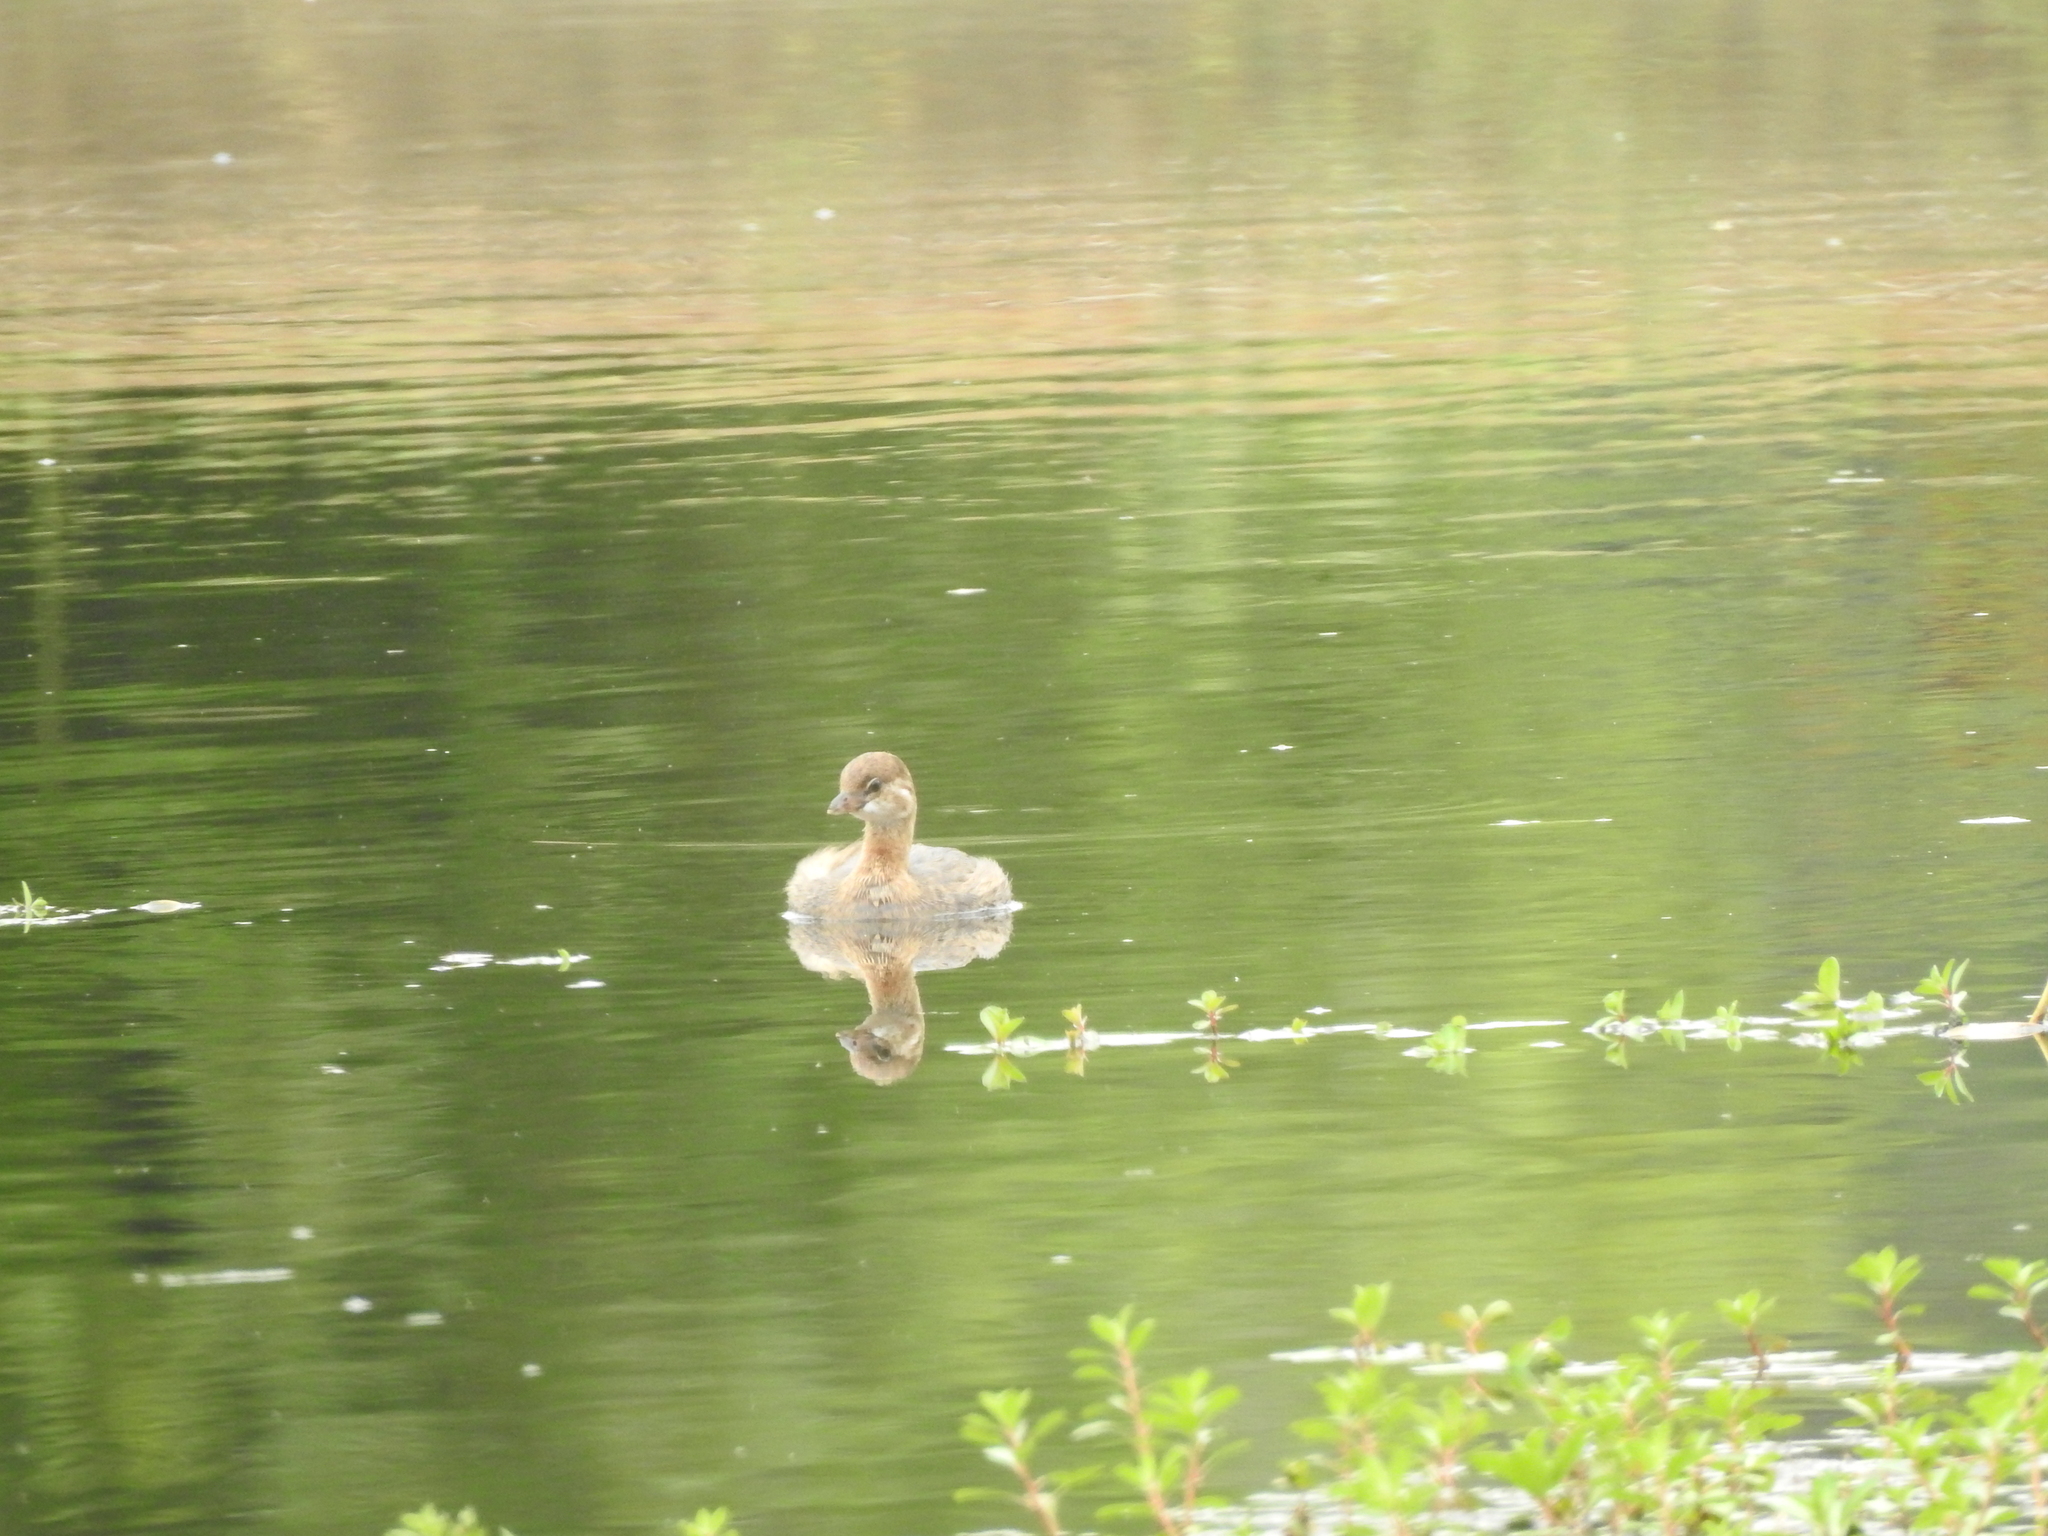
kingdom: Animalia
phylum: Chordata
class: Aves
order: Podicipediformes
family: Podicipedidae
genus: Podilymbus
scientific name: Podilymbus podiceps
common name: Pied-billed grebe
